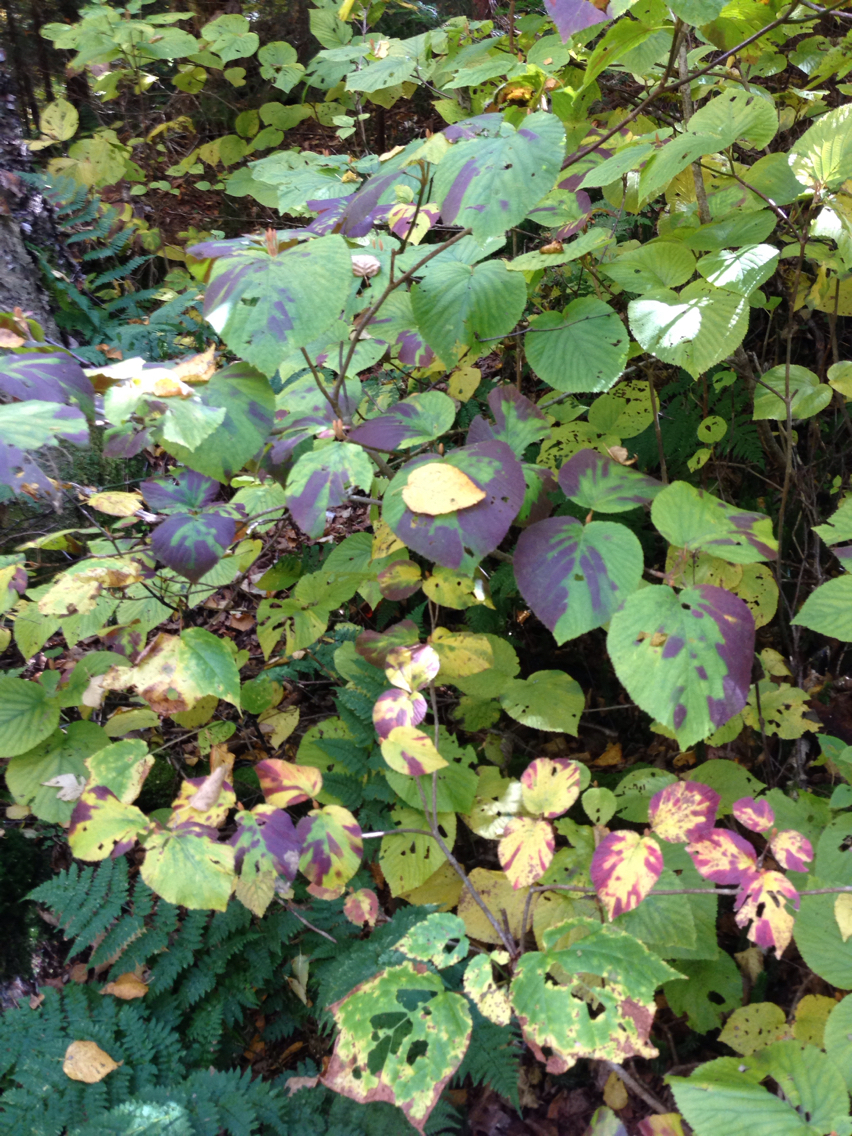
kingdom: Plantae
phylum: Tracheophyta
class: Magnoliopsida
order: Dipsacales
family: Viburnaceae
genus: Viburnum
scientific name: Viburnum lantanoides
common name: Hobblebush
